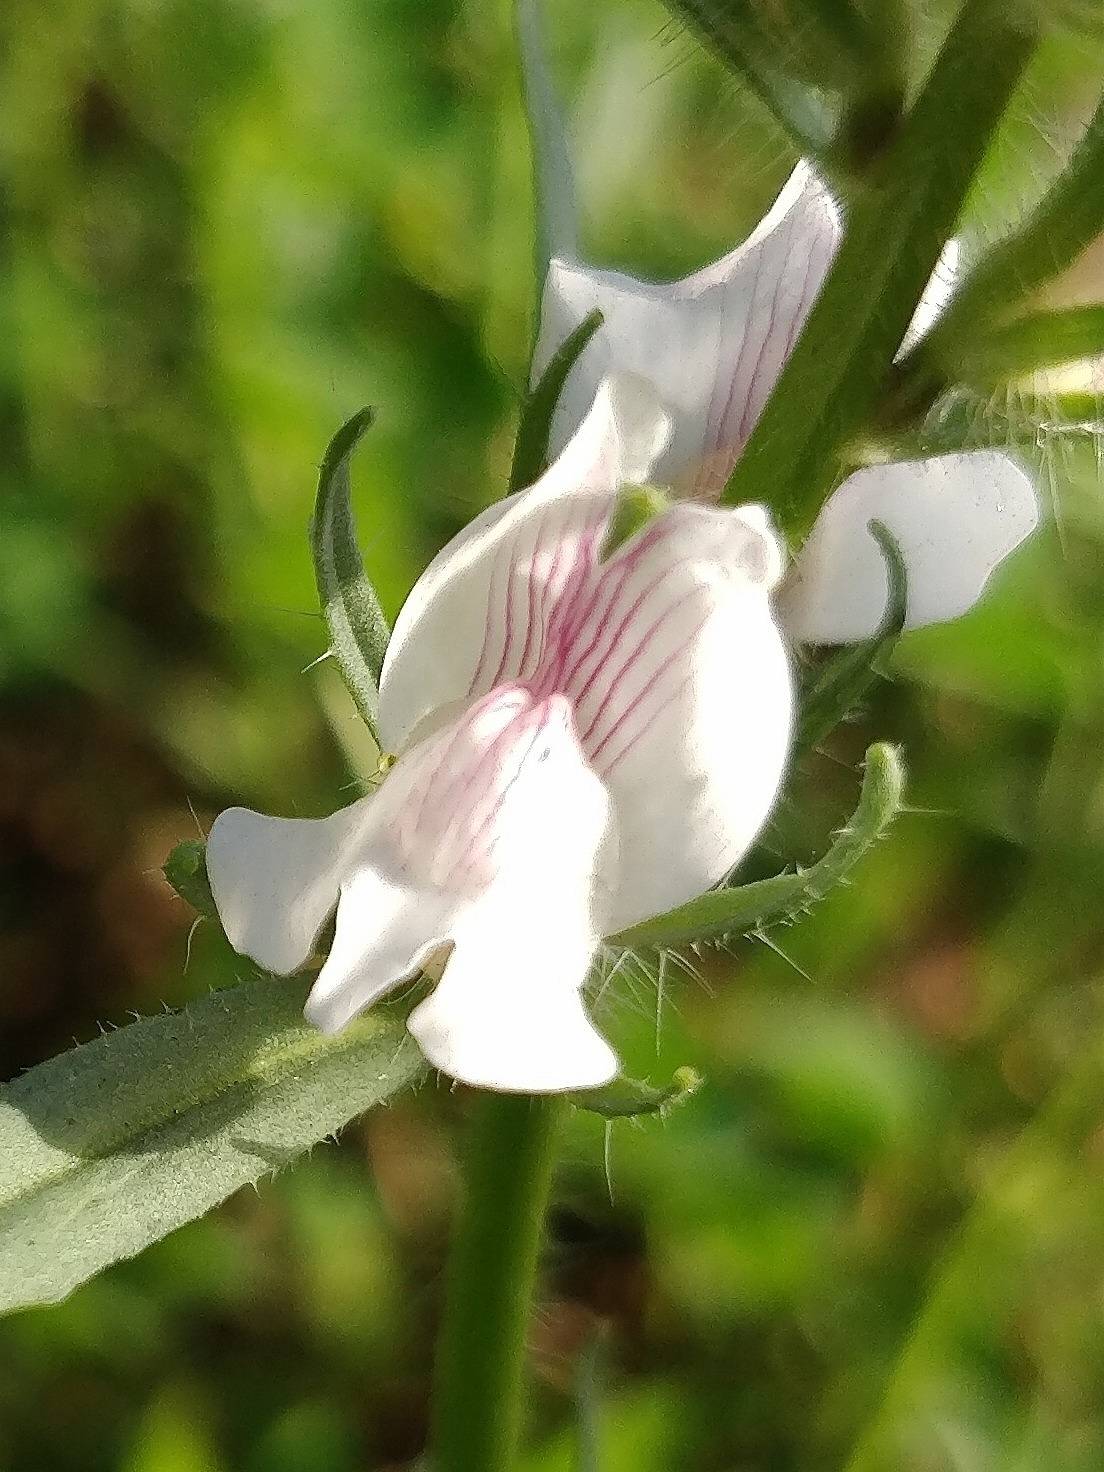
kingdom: Plantae
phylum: Tracheophyta
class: Magnoliopsida
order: Lamiales
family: Plantaginaceae
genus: Misopates
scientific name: Misopates orontium
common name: Weasel's-snout
